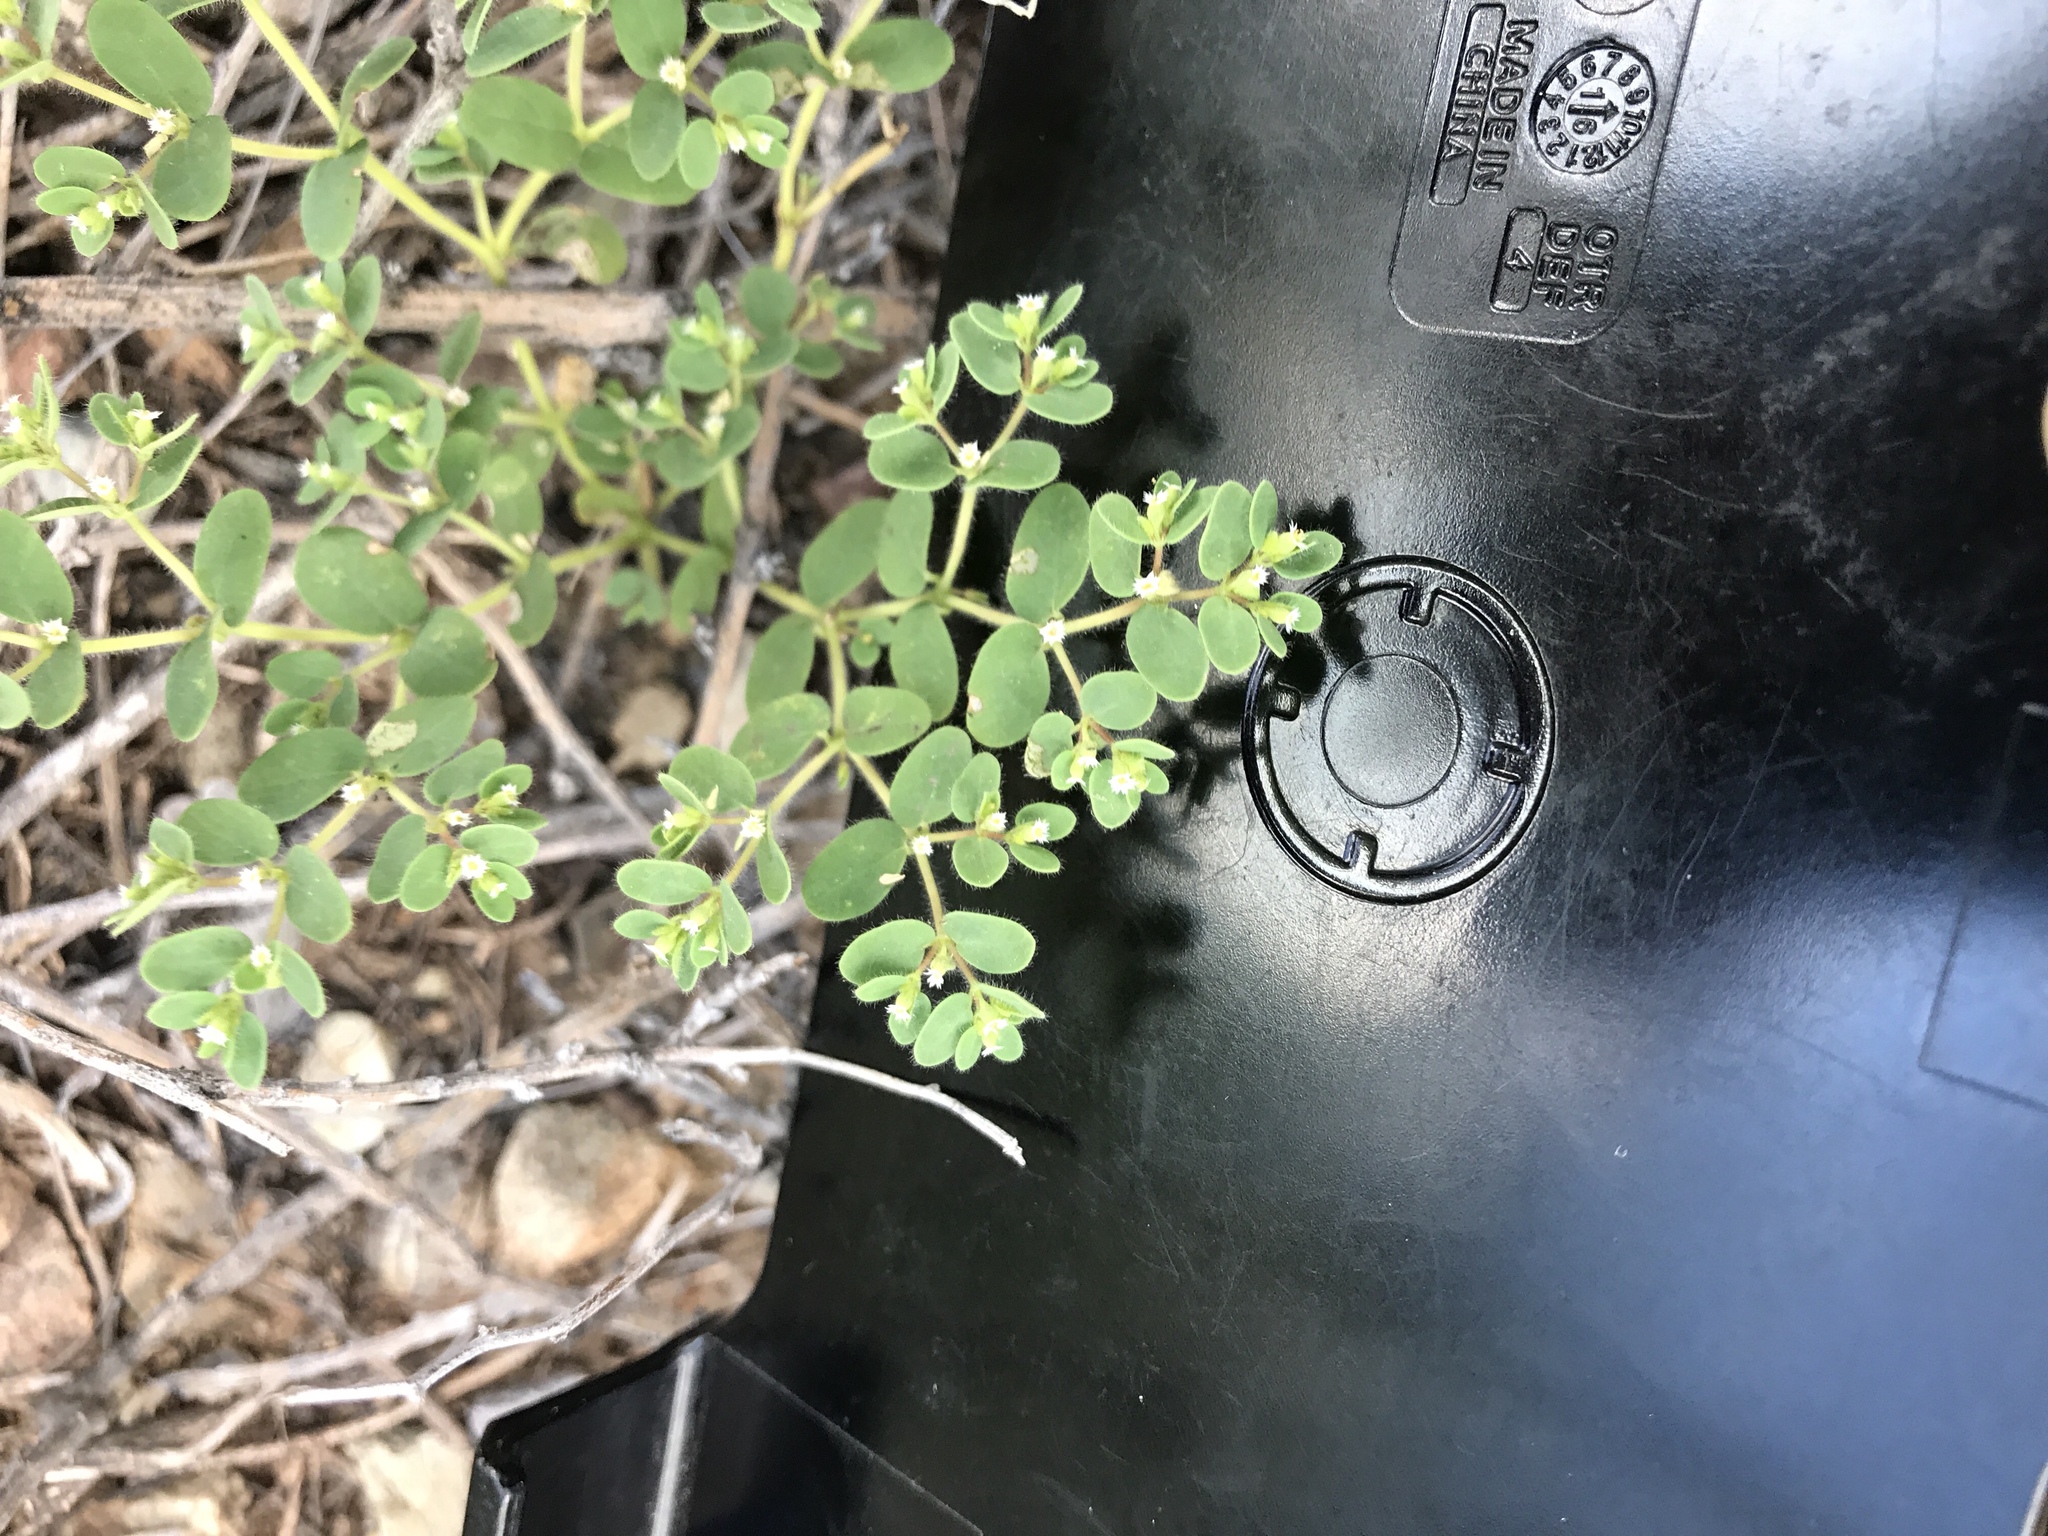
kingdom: Plantae
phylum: Tracheophyta
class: Magnoliopsida
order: Malpighiales
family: Euphorbiaceae
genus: Euphorbia
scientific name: Euphorbia setiloba
